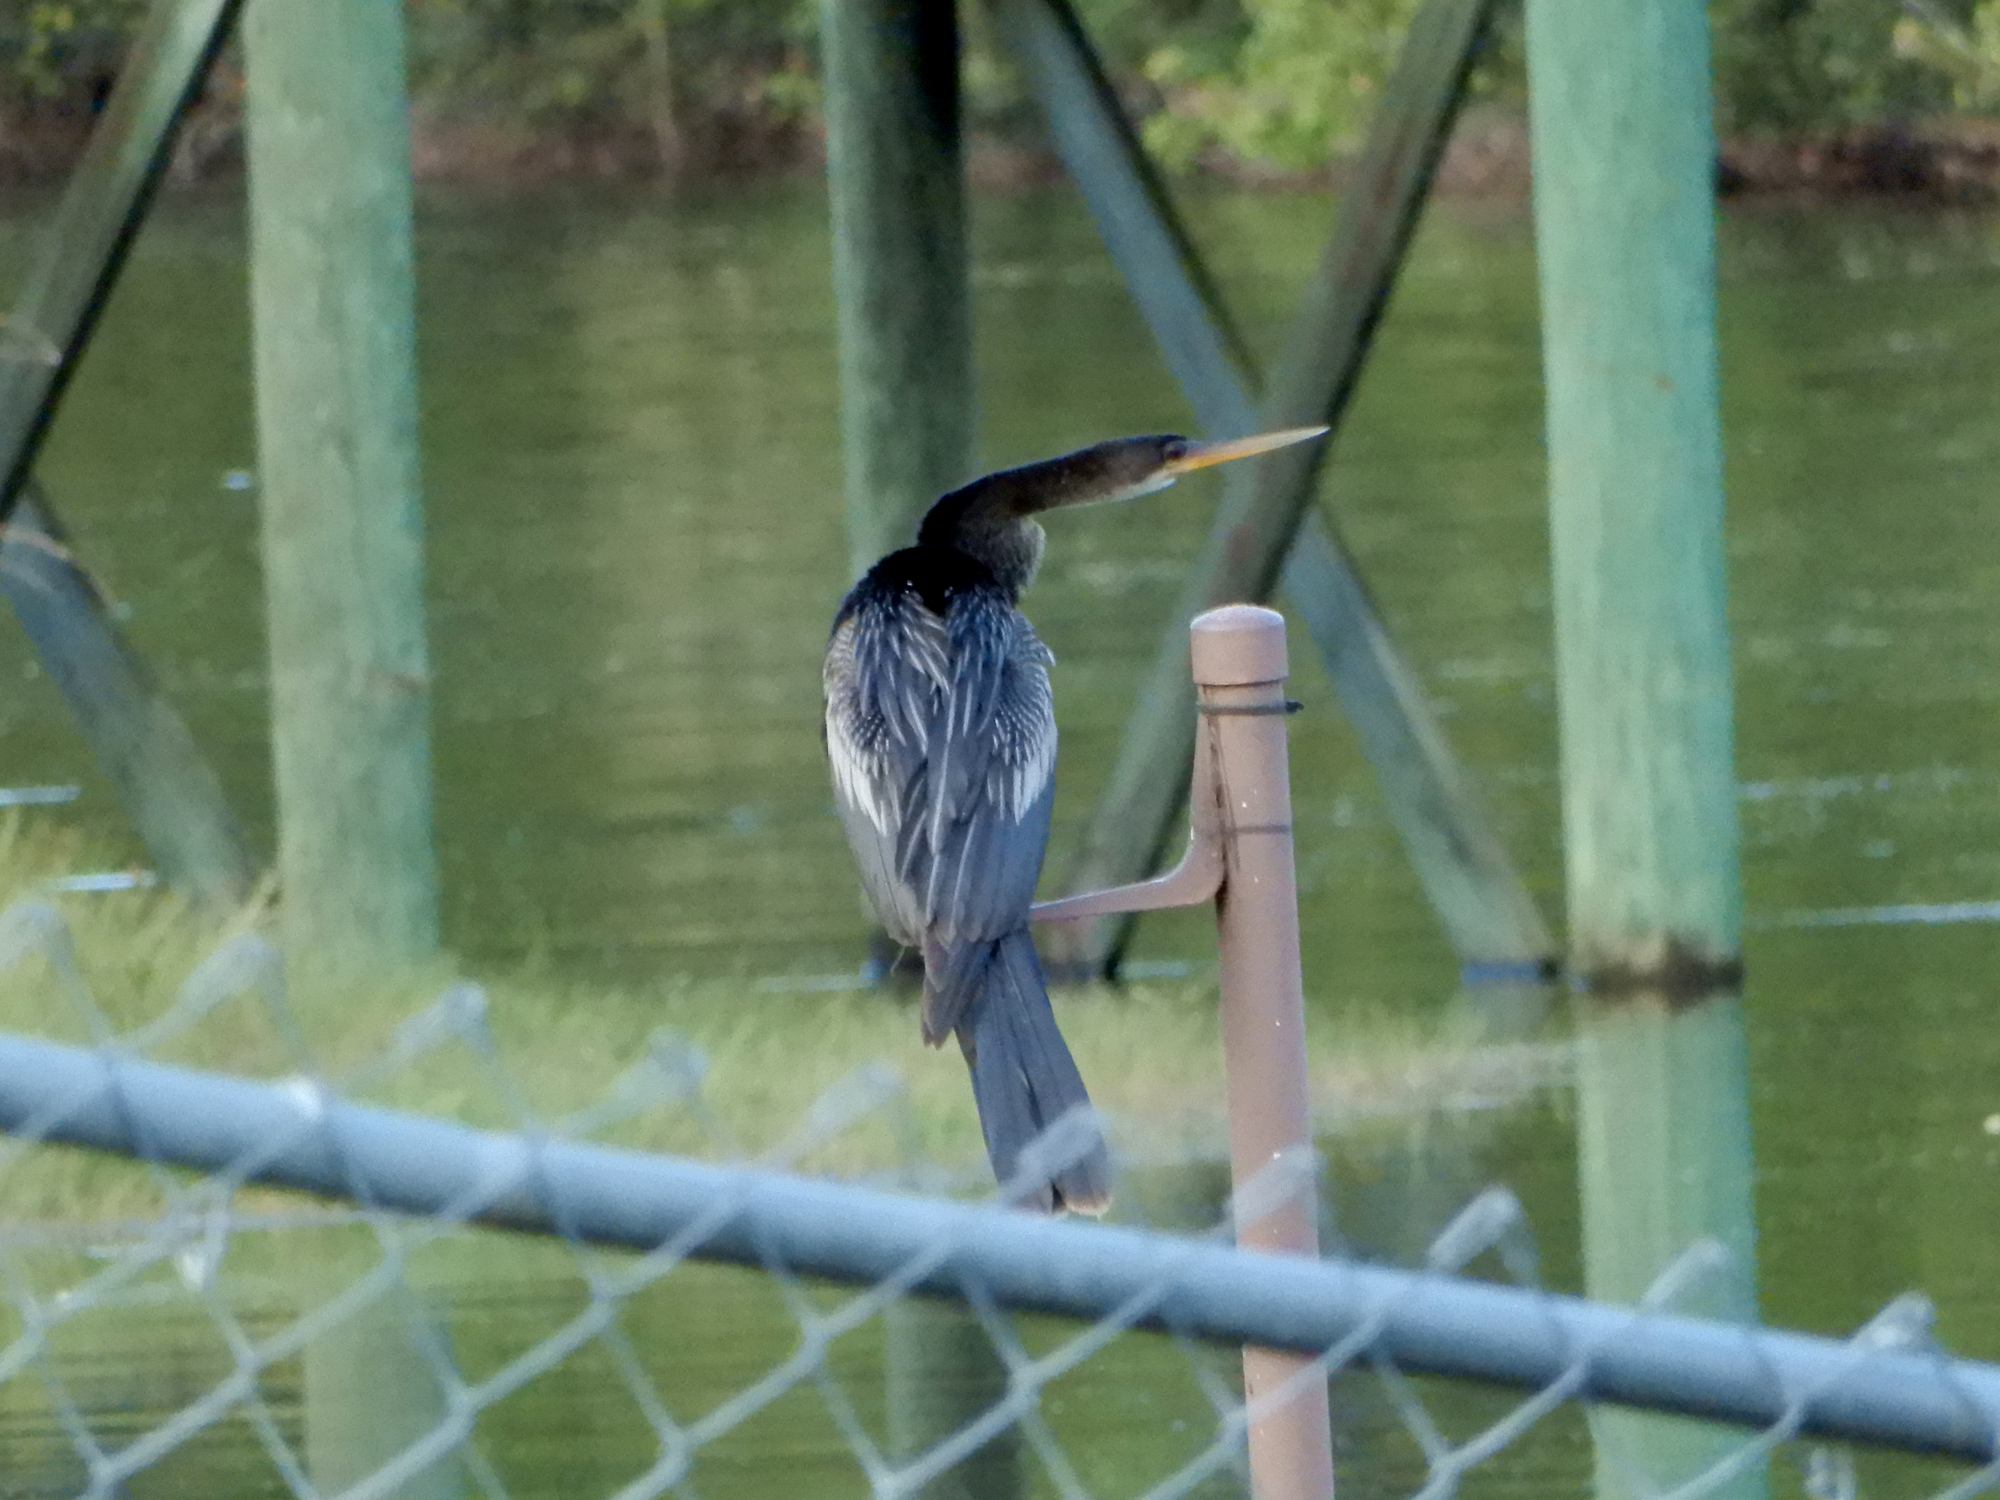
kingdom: Animalia
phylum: Chordata
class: Aves
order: Suliformes
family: Anhingidae
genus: Anhinga
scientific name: Anhinga anhinga
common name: Anhinga
